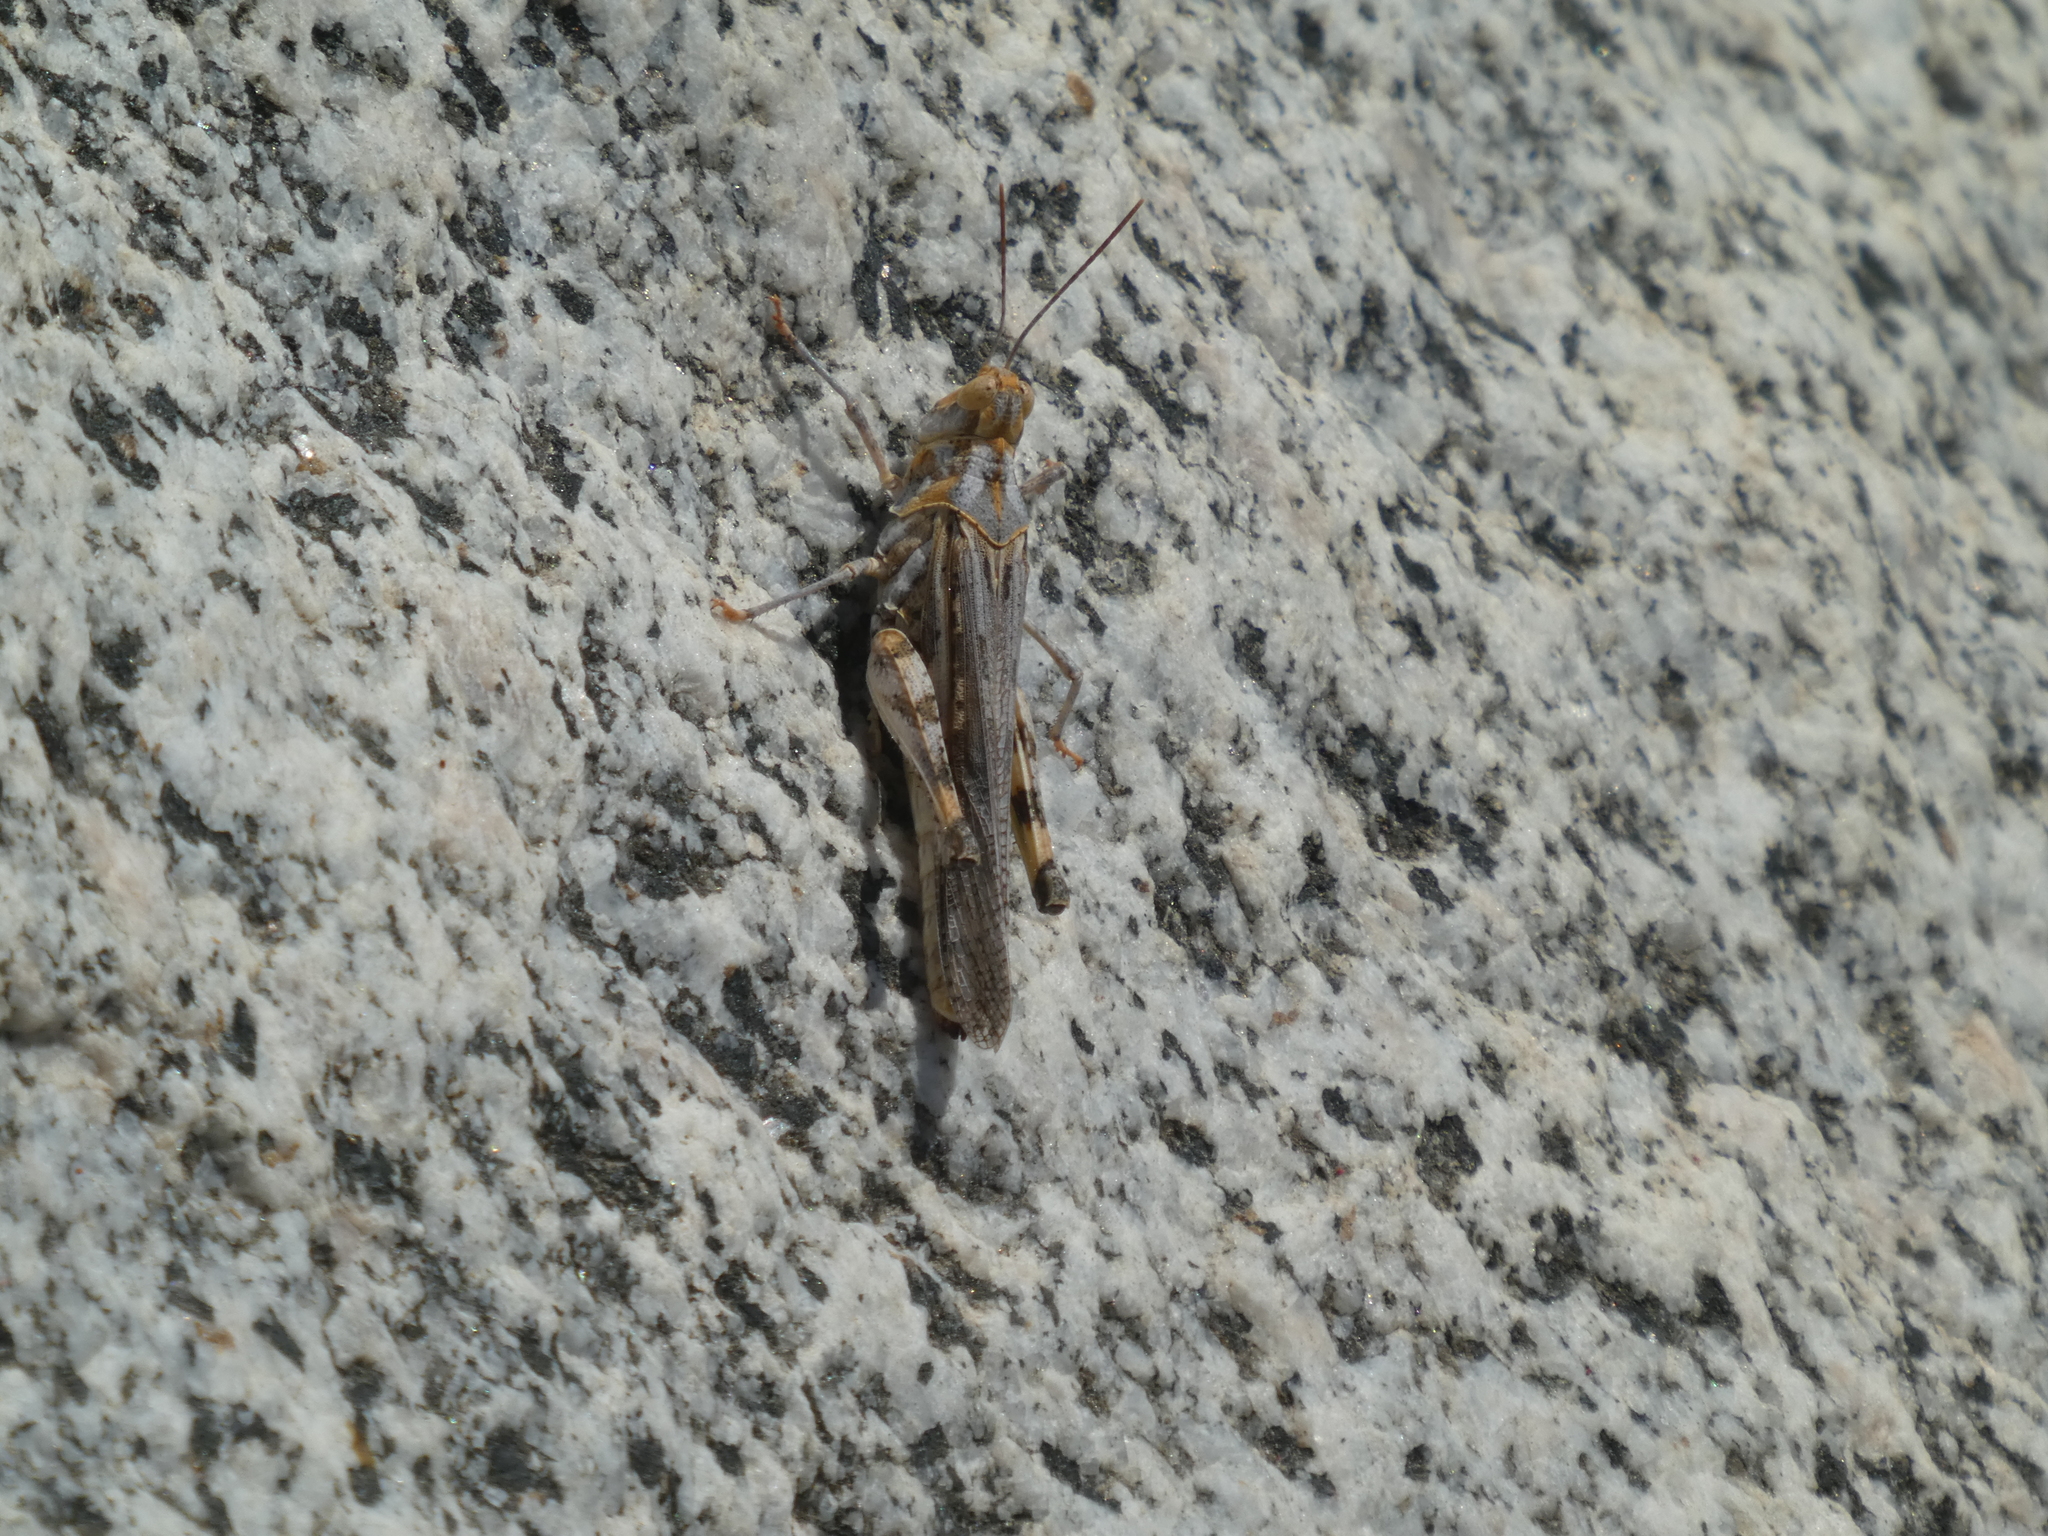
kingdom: Animalia
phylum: Arthropoda
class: Insecta
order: Orthoptera
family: Acrididae
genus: Conozoa
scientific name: Conozoa rebellis
